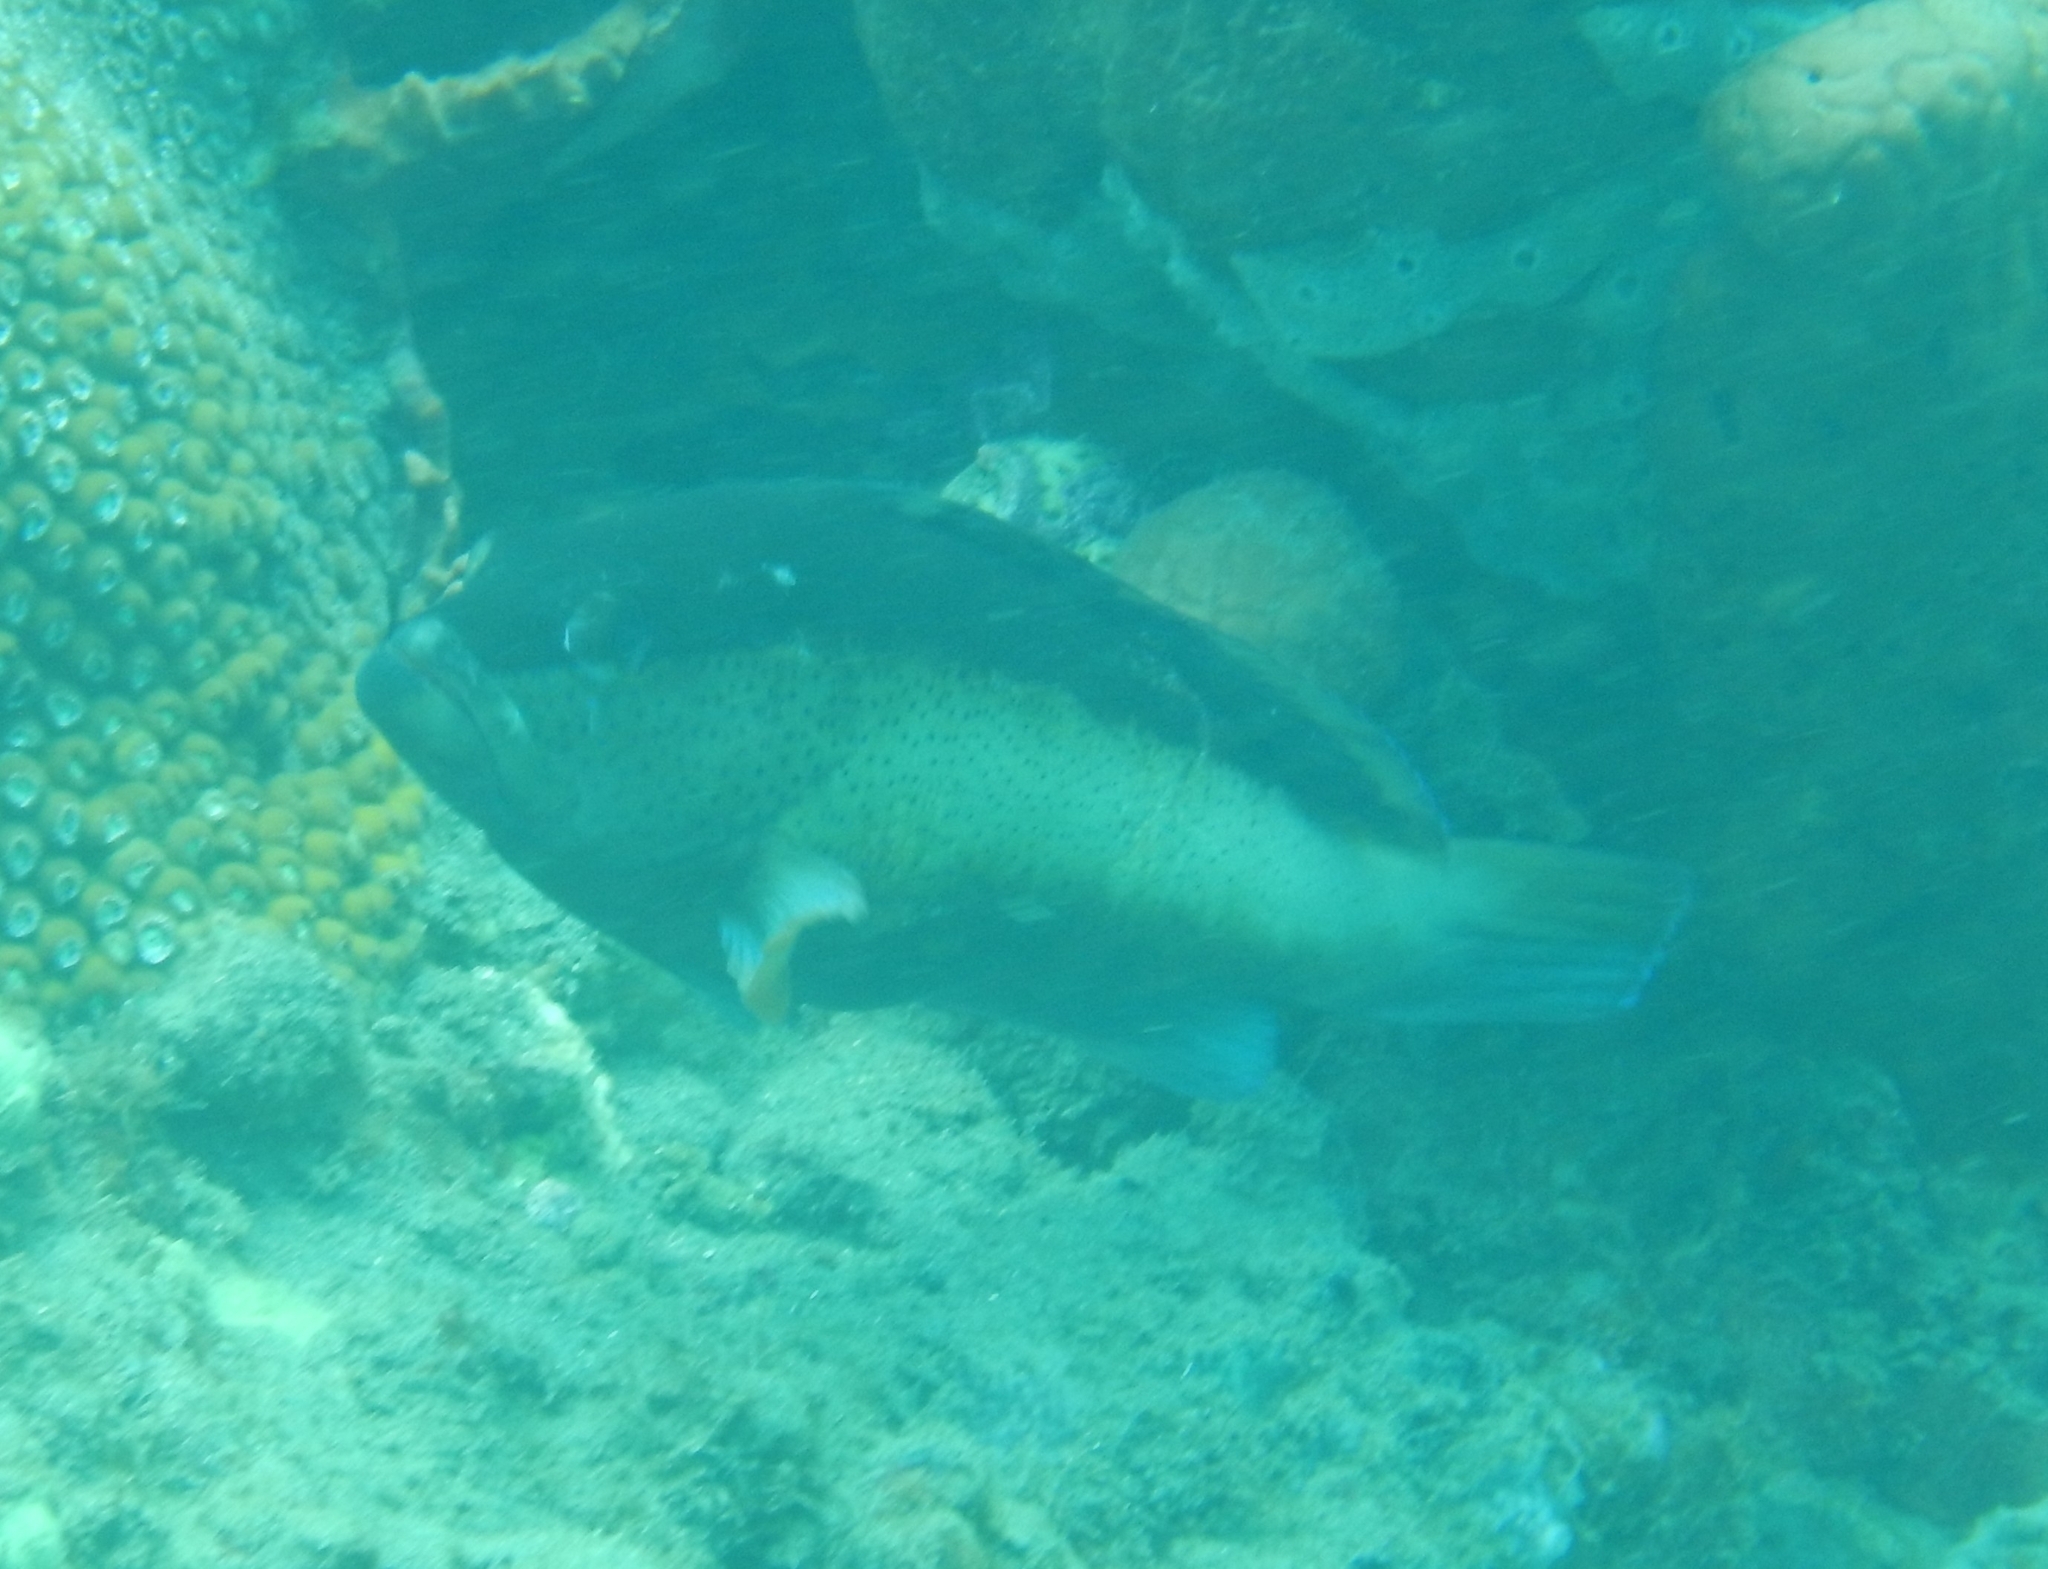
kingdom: Animalia
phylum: Chordata
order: Perciformes
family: Serranidae
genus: Cephalopholis
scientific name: Cephalopholis fulva
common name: Butterfish
